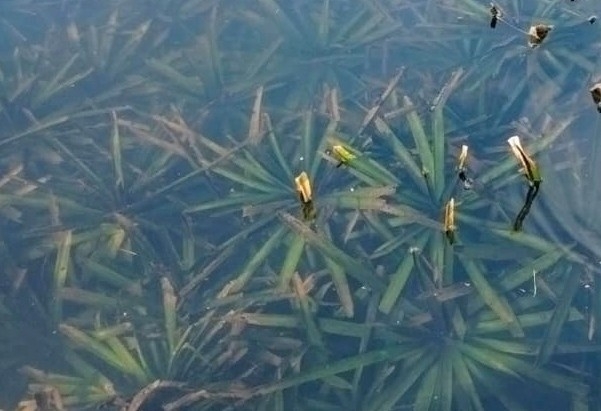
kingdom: Plantae
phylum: Tracheophyta
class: Liliopsida
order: Alismatales
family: Hydrocharitaceae
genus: Stratiotes
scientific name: Stratiotes aloides
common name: Water-soldier
